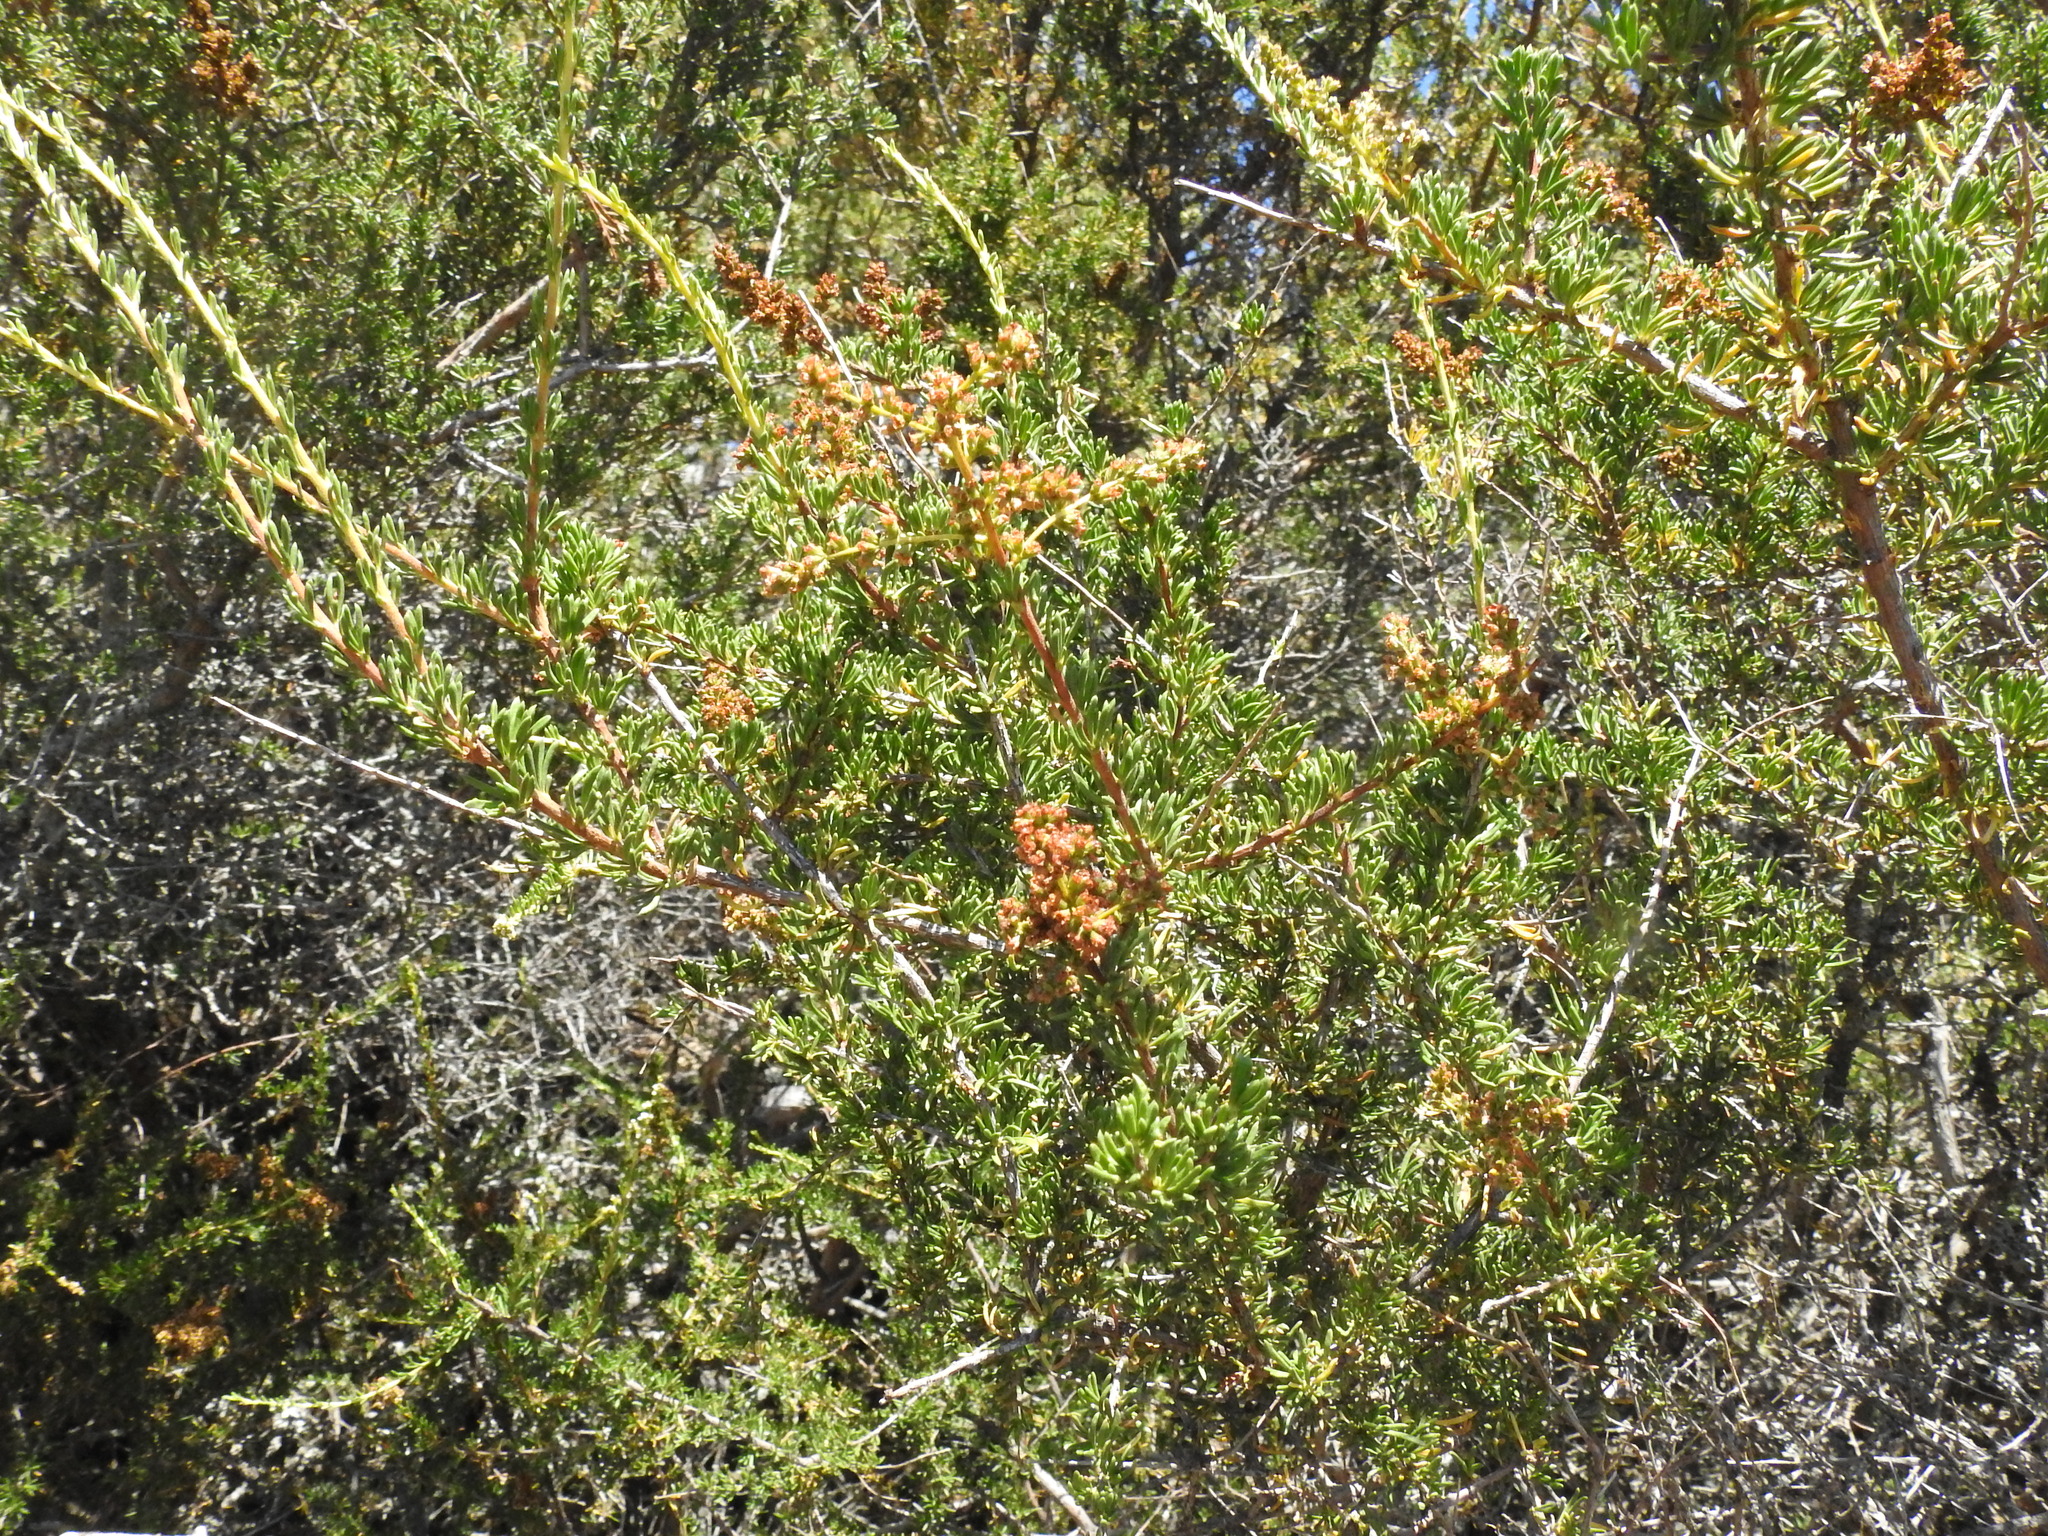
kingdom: Plantae
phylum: Tracheophyta
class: Magnoliopsida
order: Rosales
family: Rosaceae
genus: Adenostoma
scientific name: Adenostoma fasciculatum
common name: Chamise
